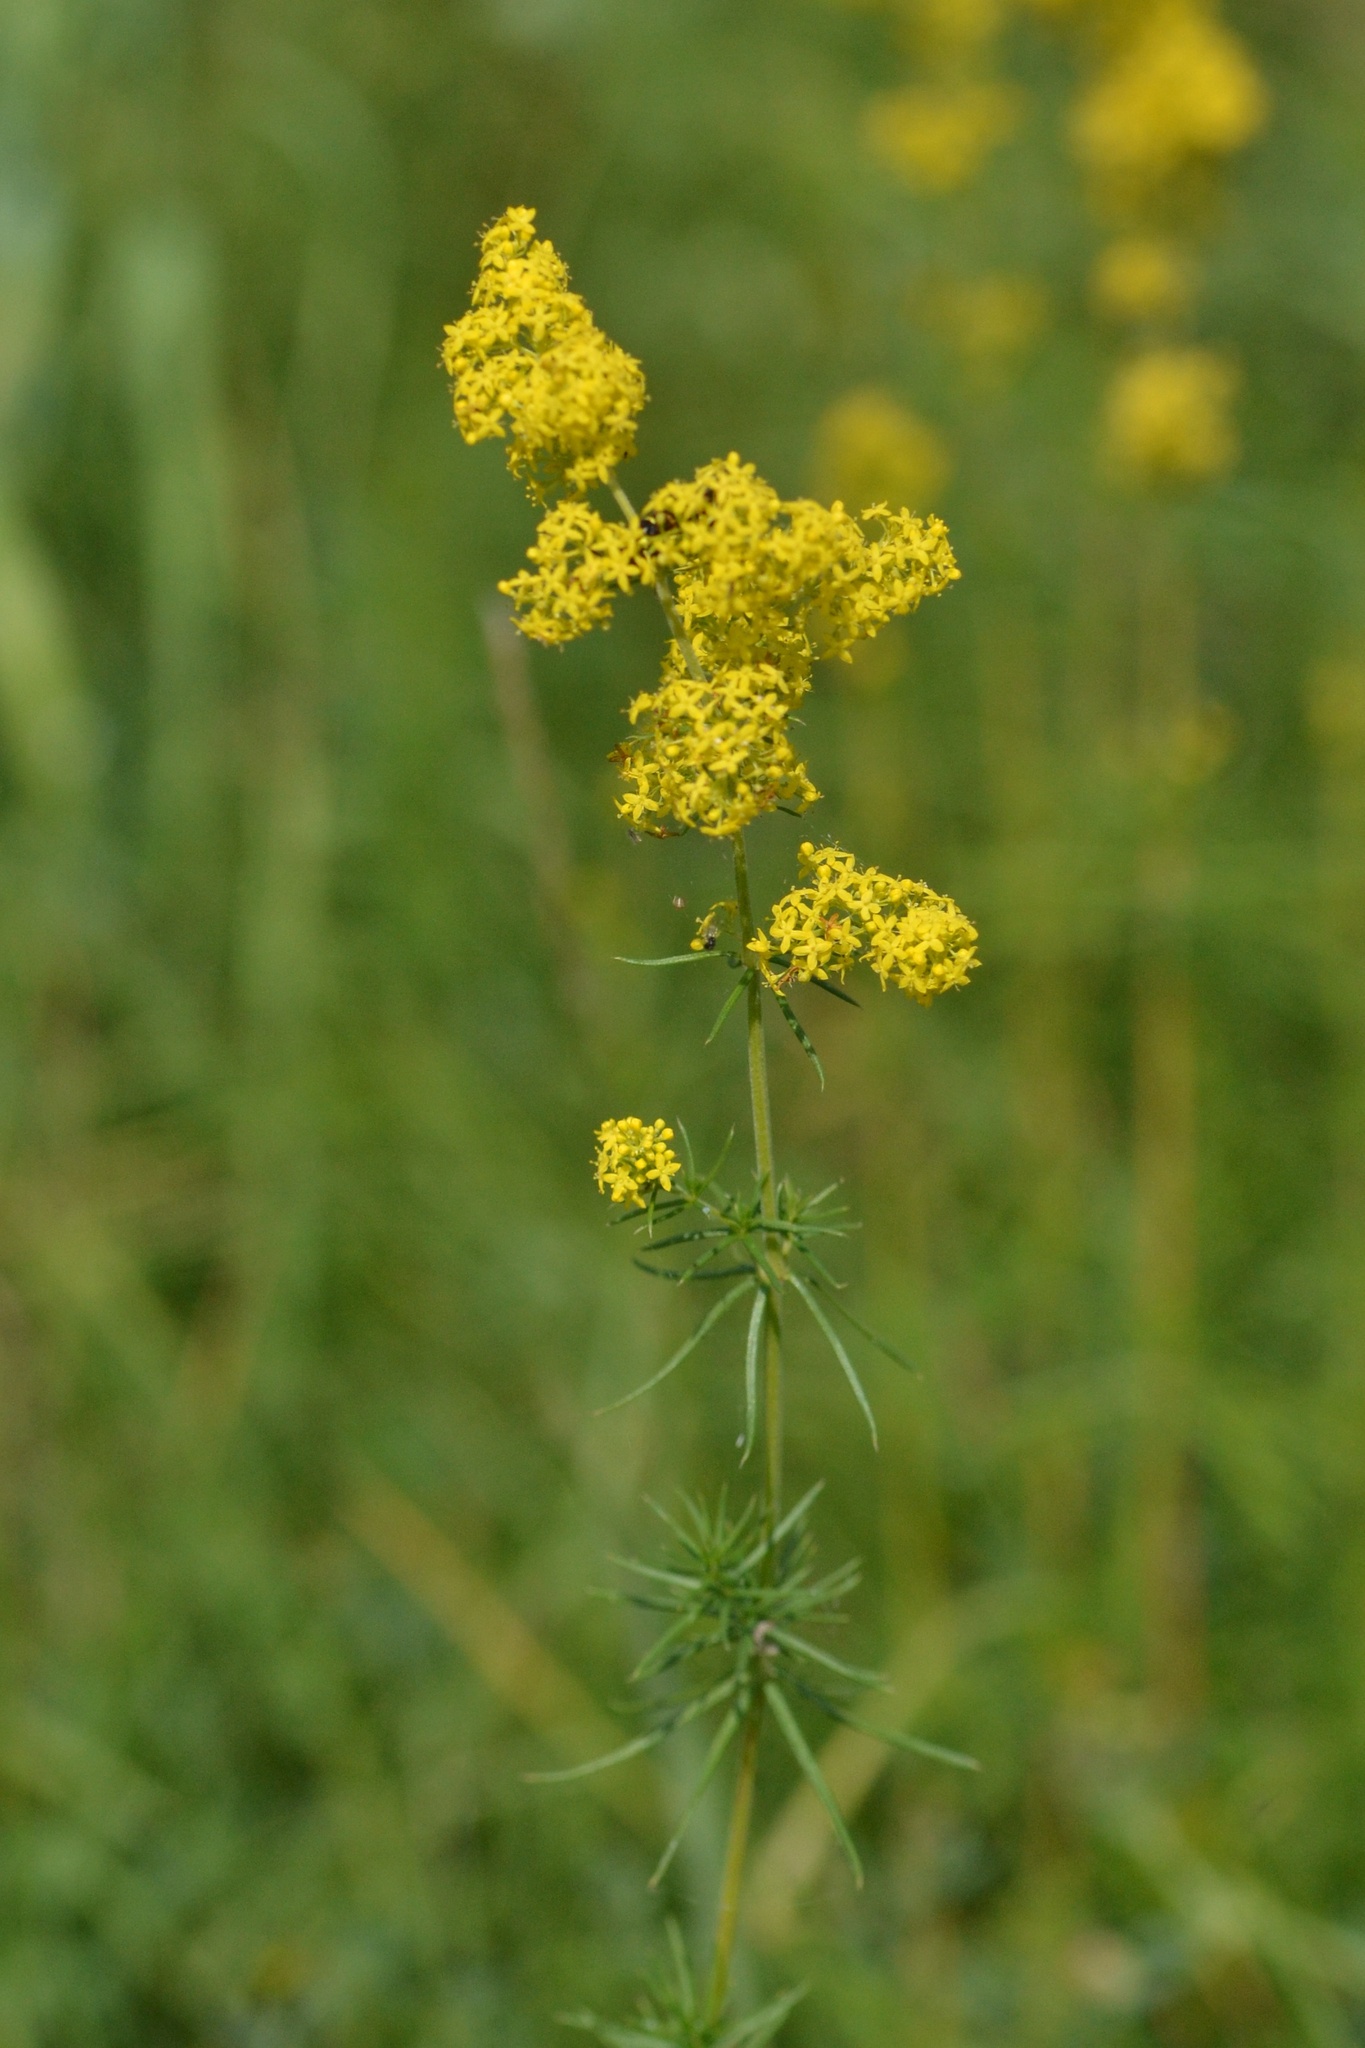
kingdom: Plantae
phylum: Tracheophyta
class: Magnoliopsida
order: Gentianales
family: Rubiaceae
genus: Galium
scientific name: Galium verum
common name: Lady's bedstraw
